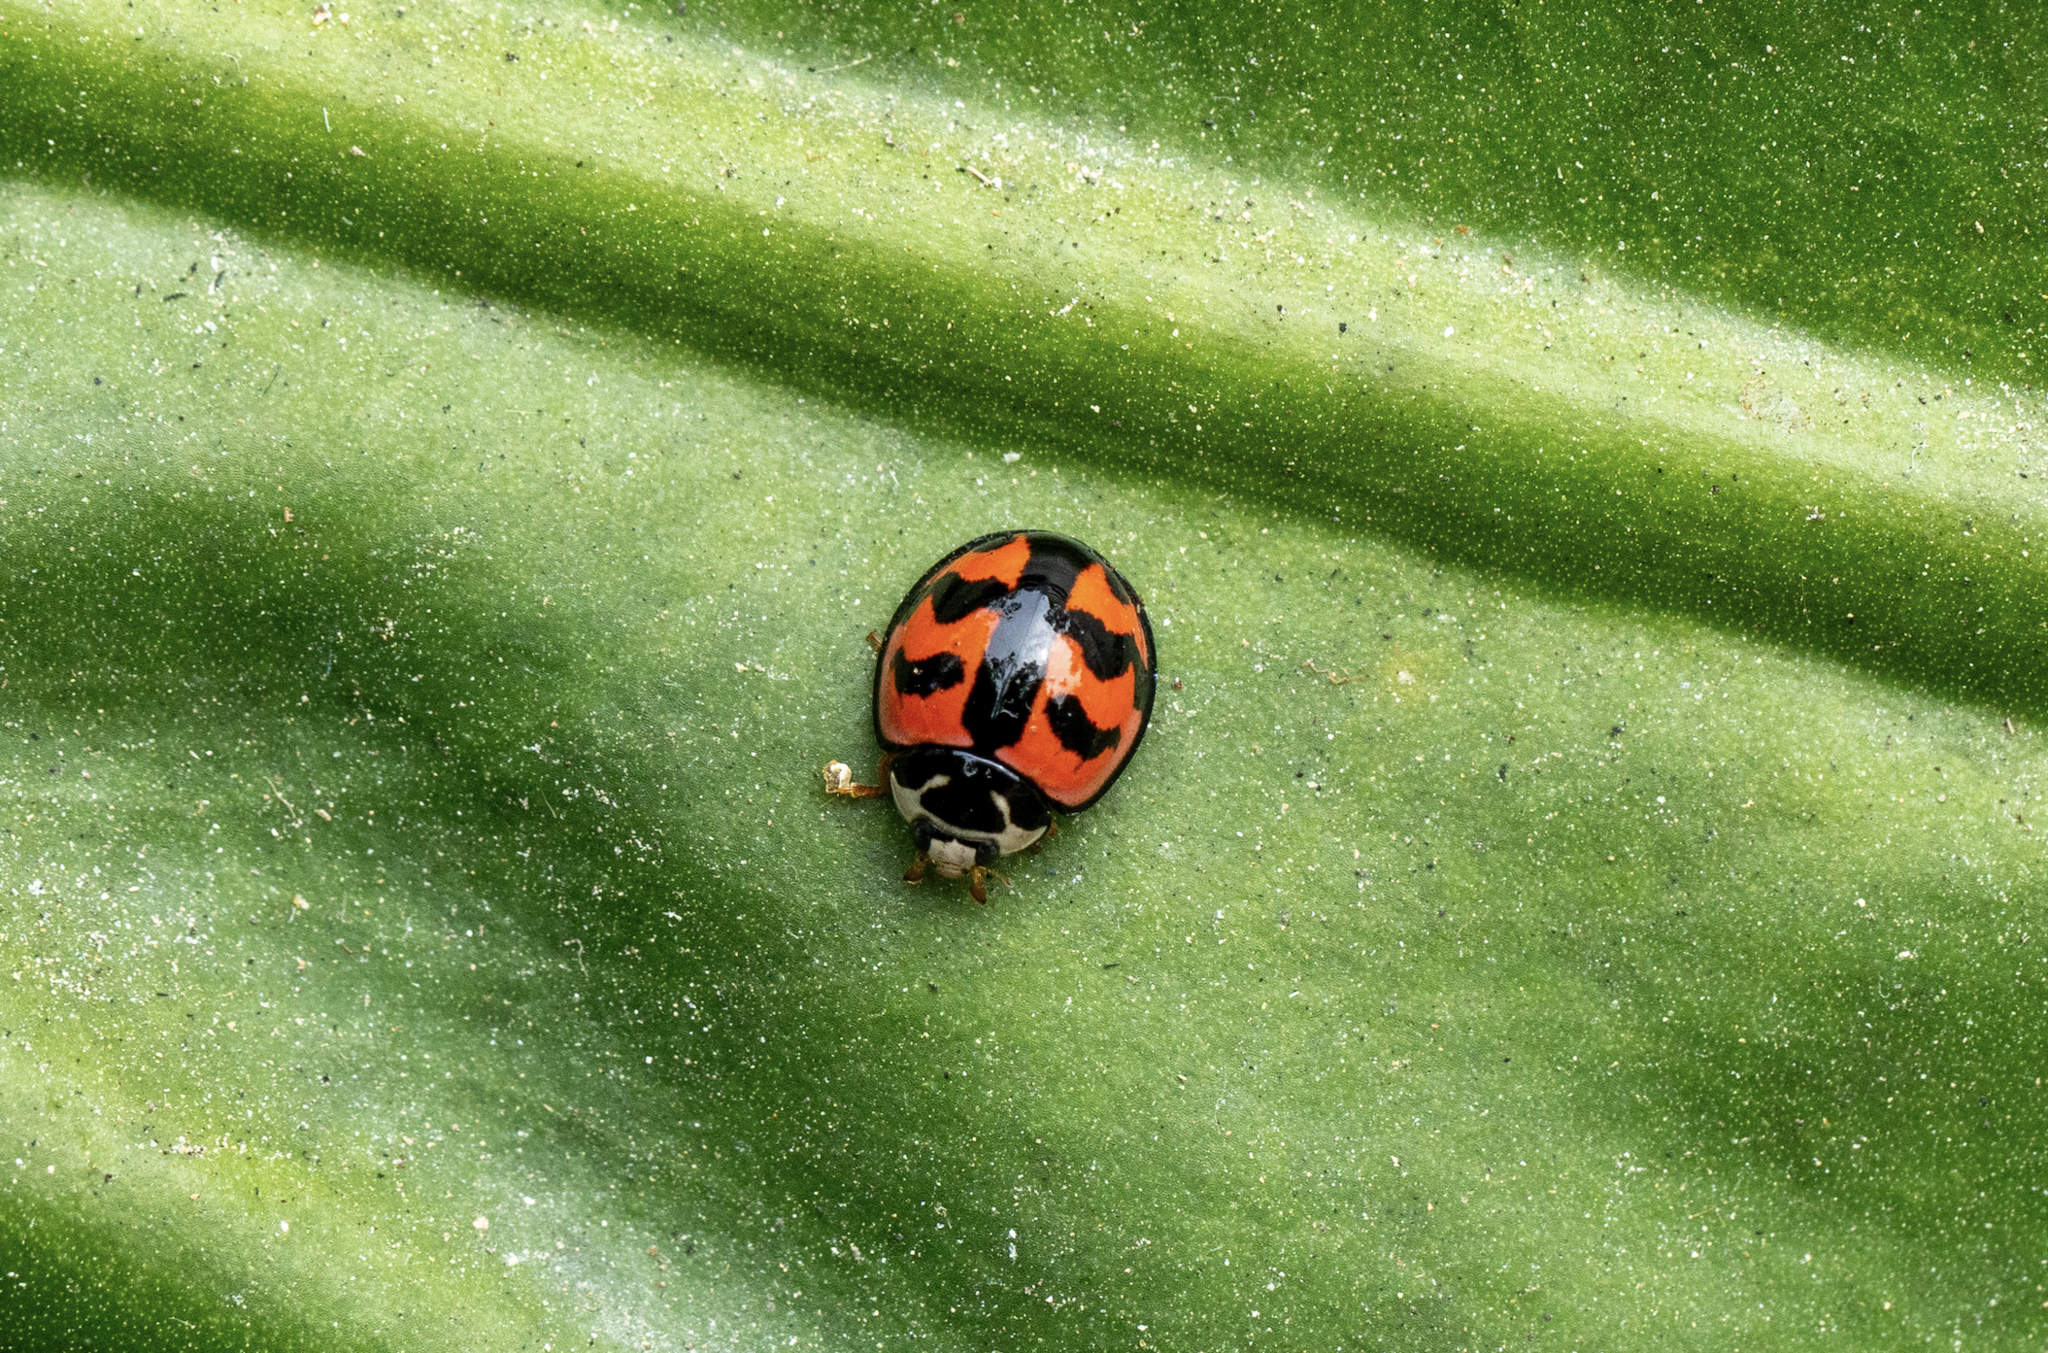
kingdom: Animalia
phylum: Arthropoda
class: Insecta
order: Coleoptera
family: Coccinellidae
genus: Cheilomenes
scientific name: Cheilomenes sexmaculata
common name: Ladybird beetle
